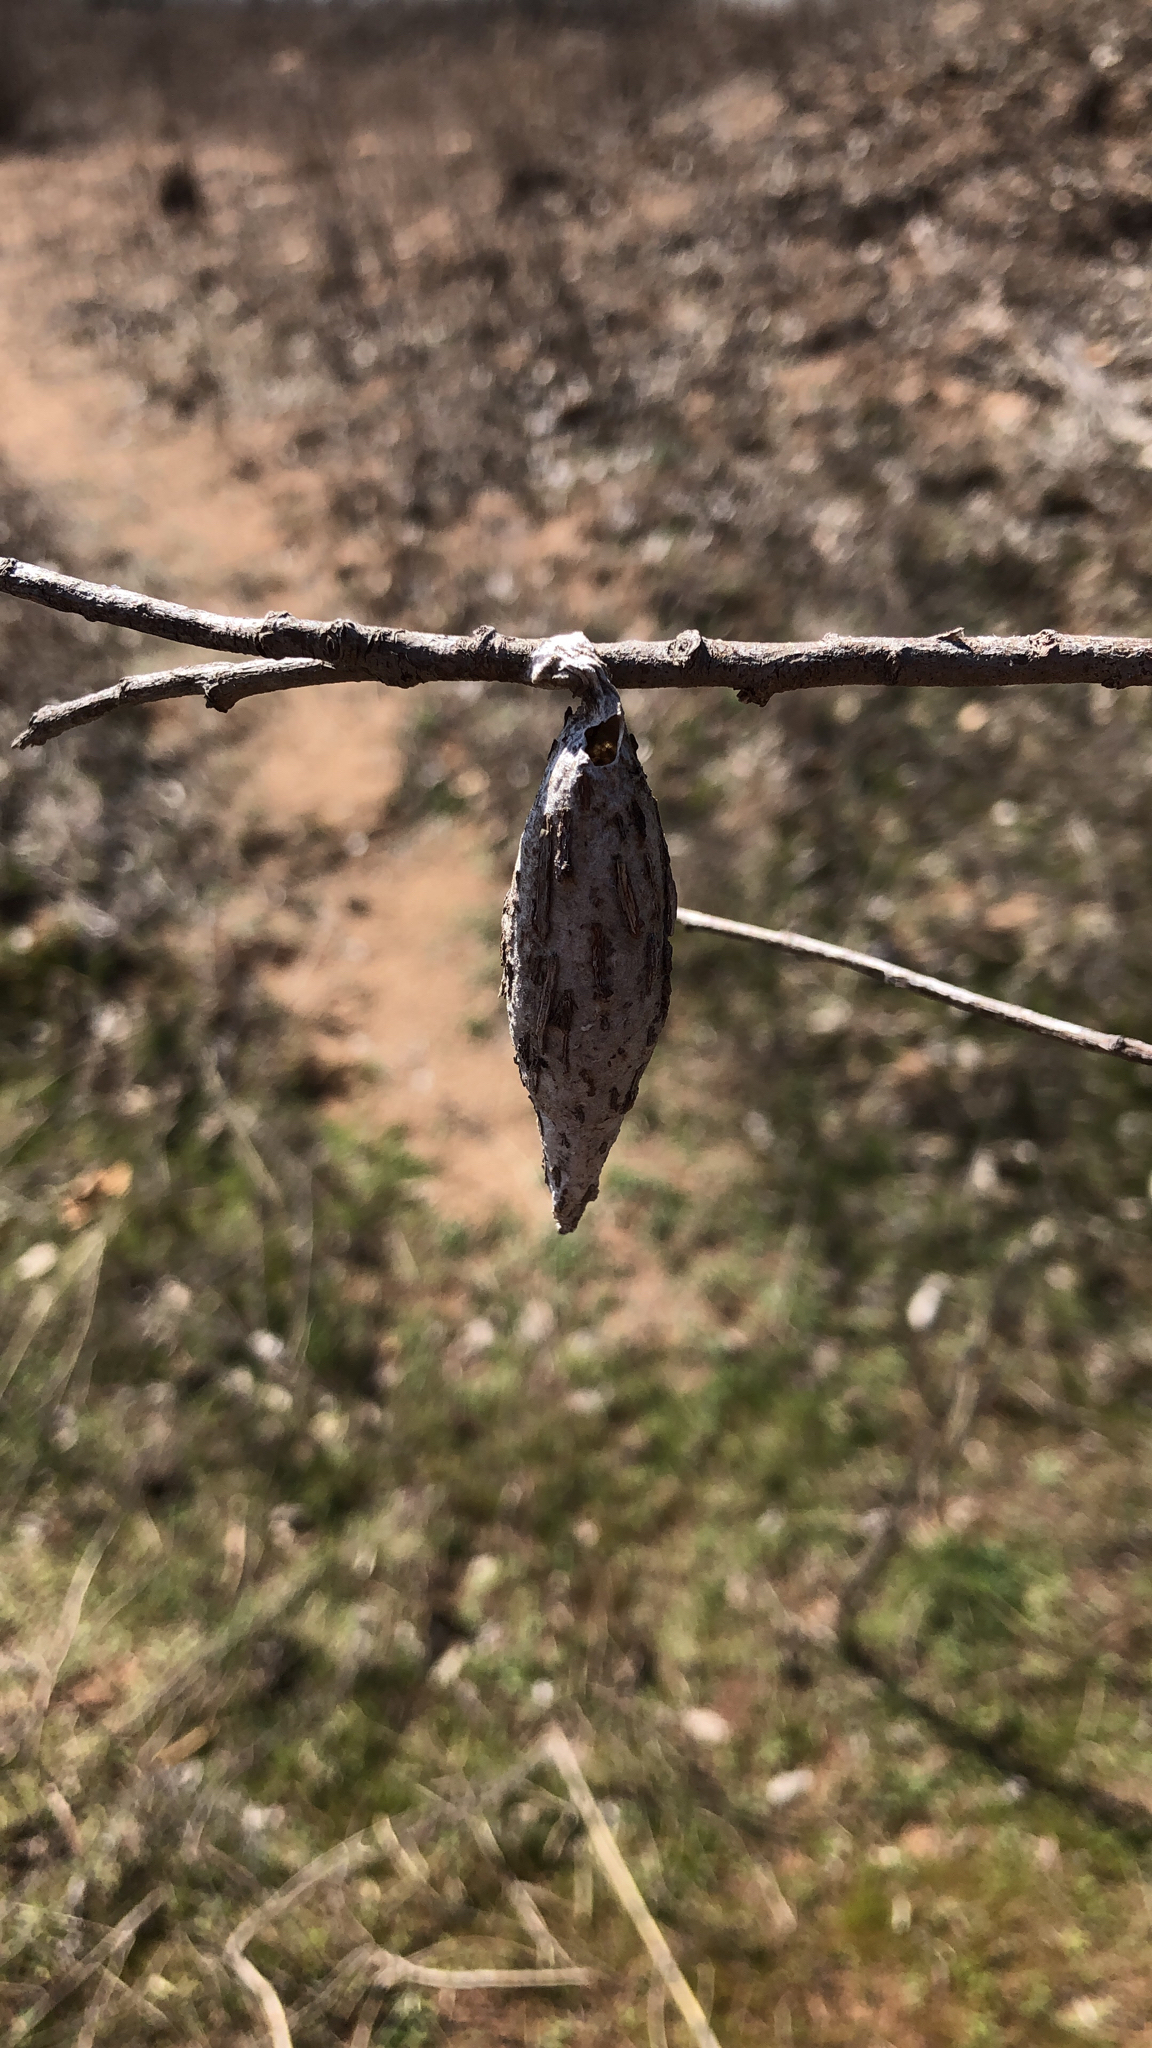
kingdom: Animalia
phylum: Arthropoda
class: Insecta
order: Lepidoptera
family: Psychidae
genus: Thyridopteryx
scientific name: Thyridopteryx ephemeraeformis
